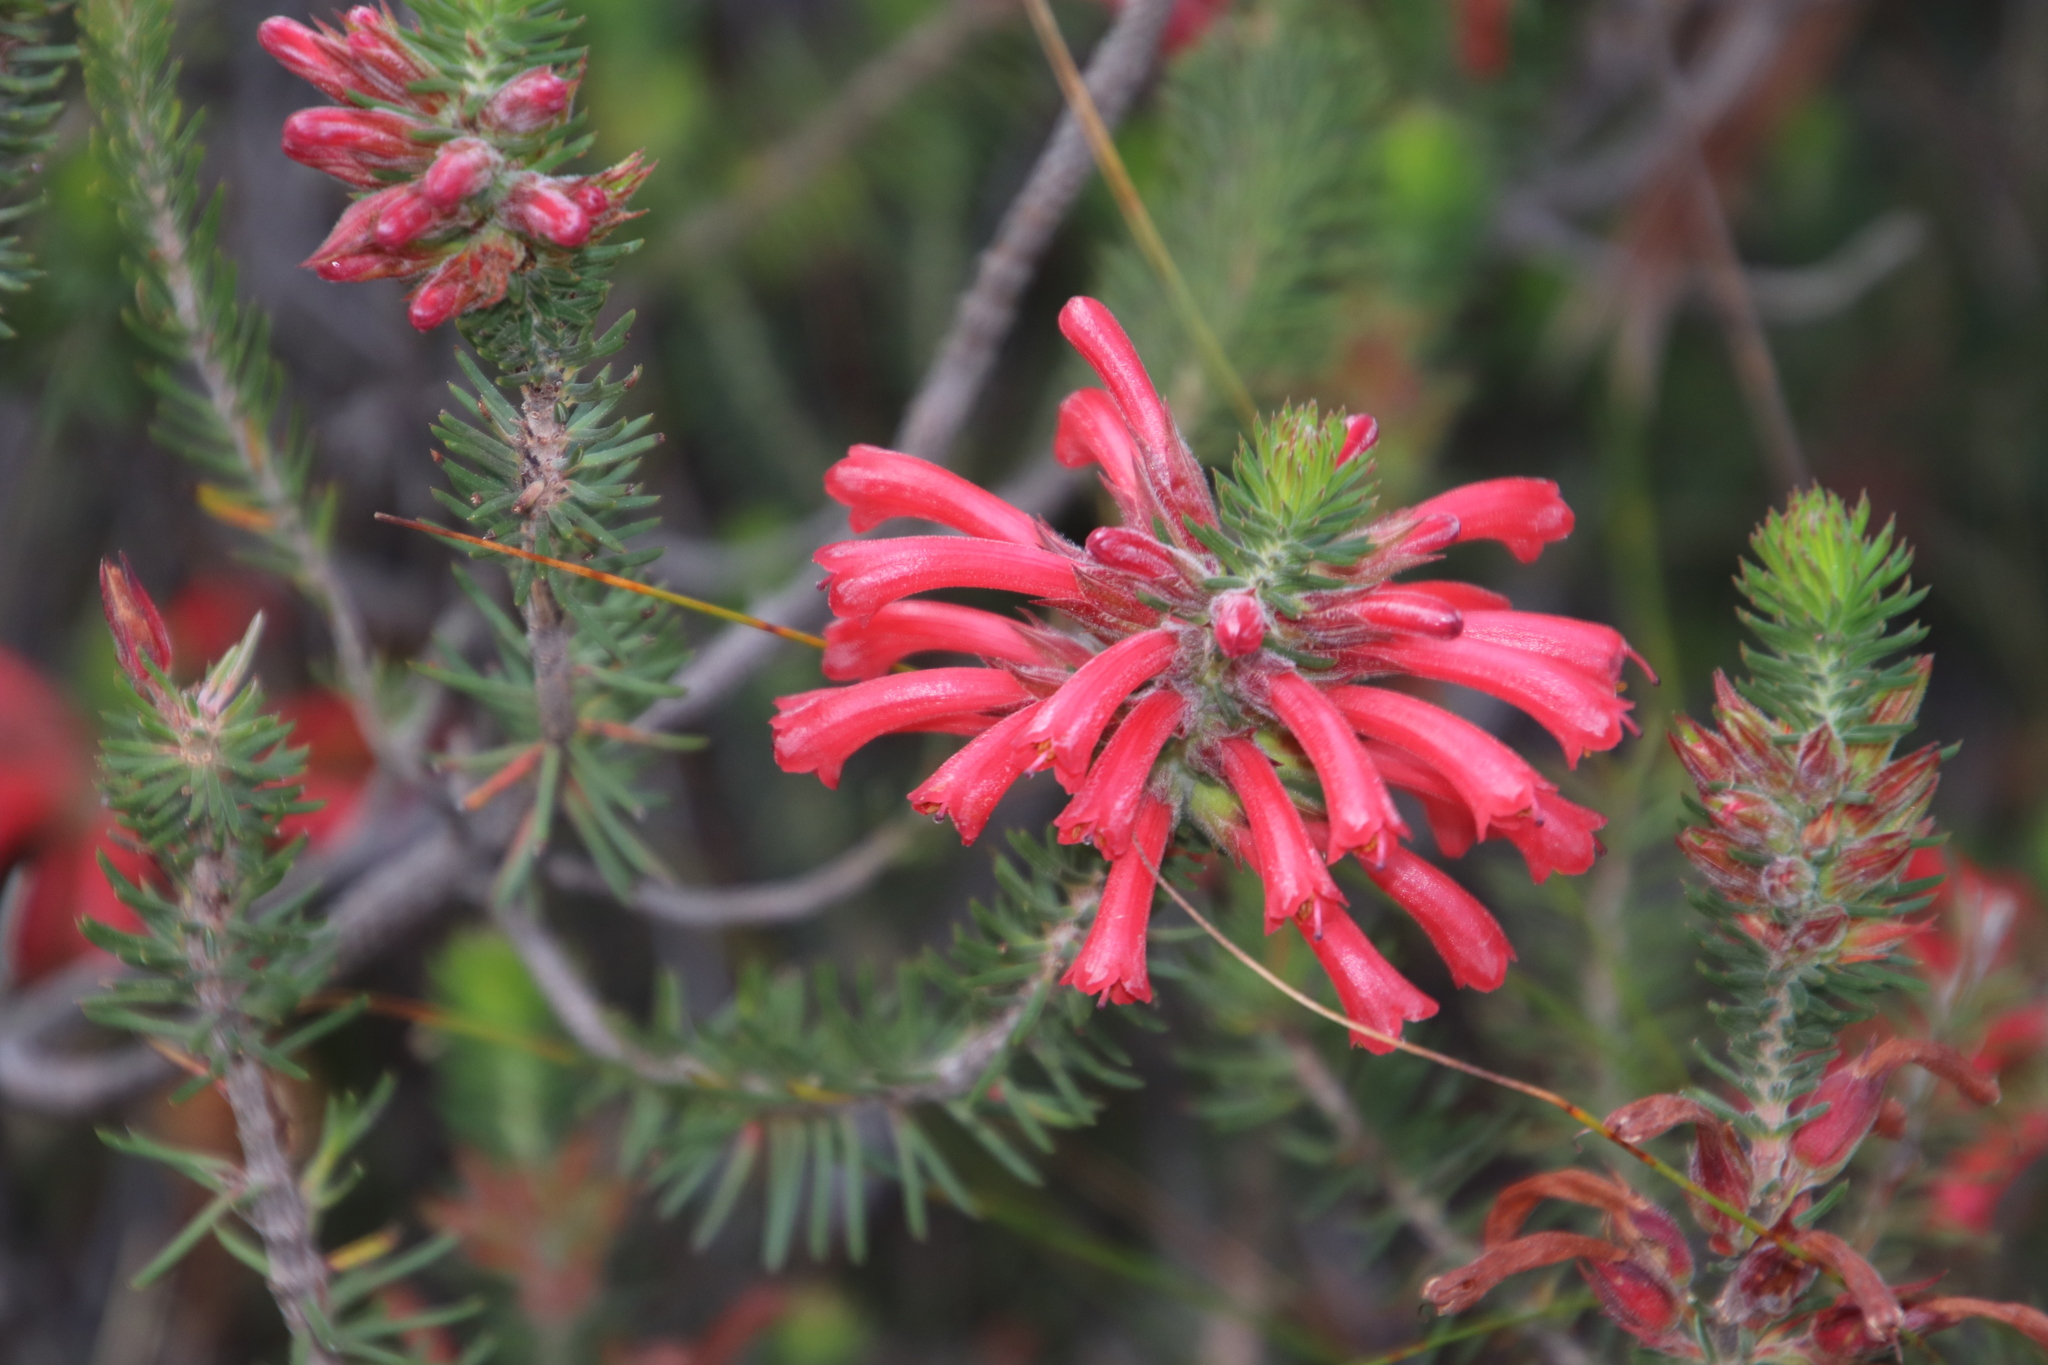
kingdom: Plantae
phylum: Tracheophyta
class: Magnoliopsida
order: Ericales
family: Ericaceae
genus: Erica
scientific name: Erica abietina
